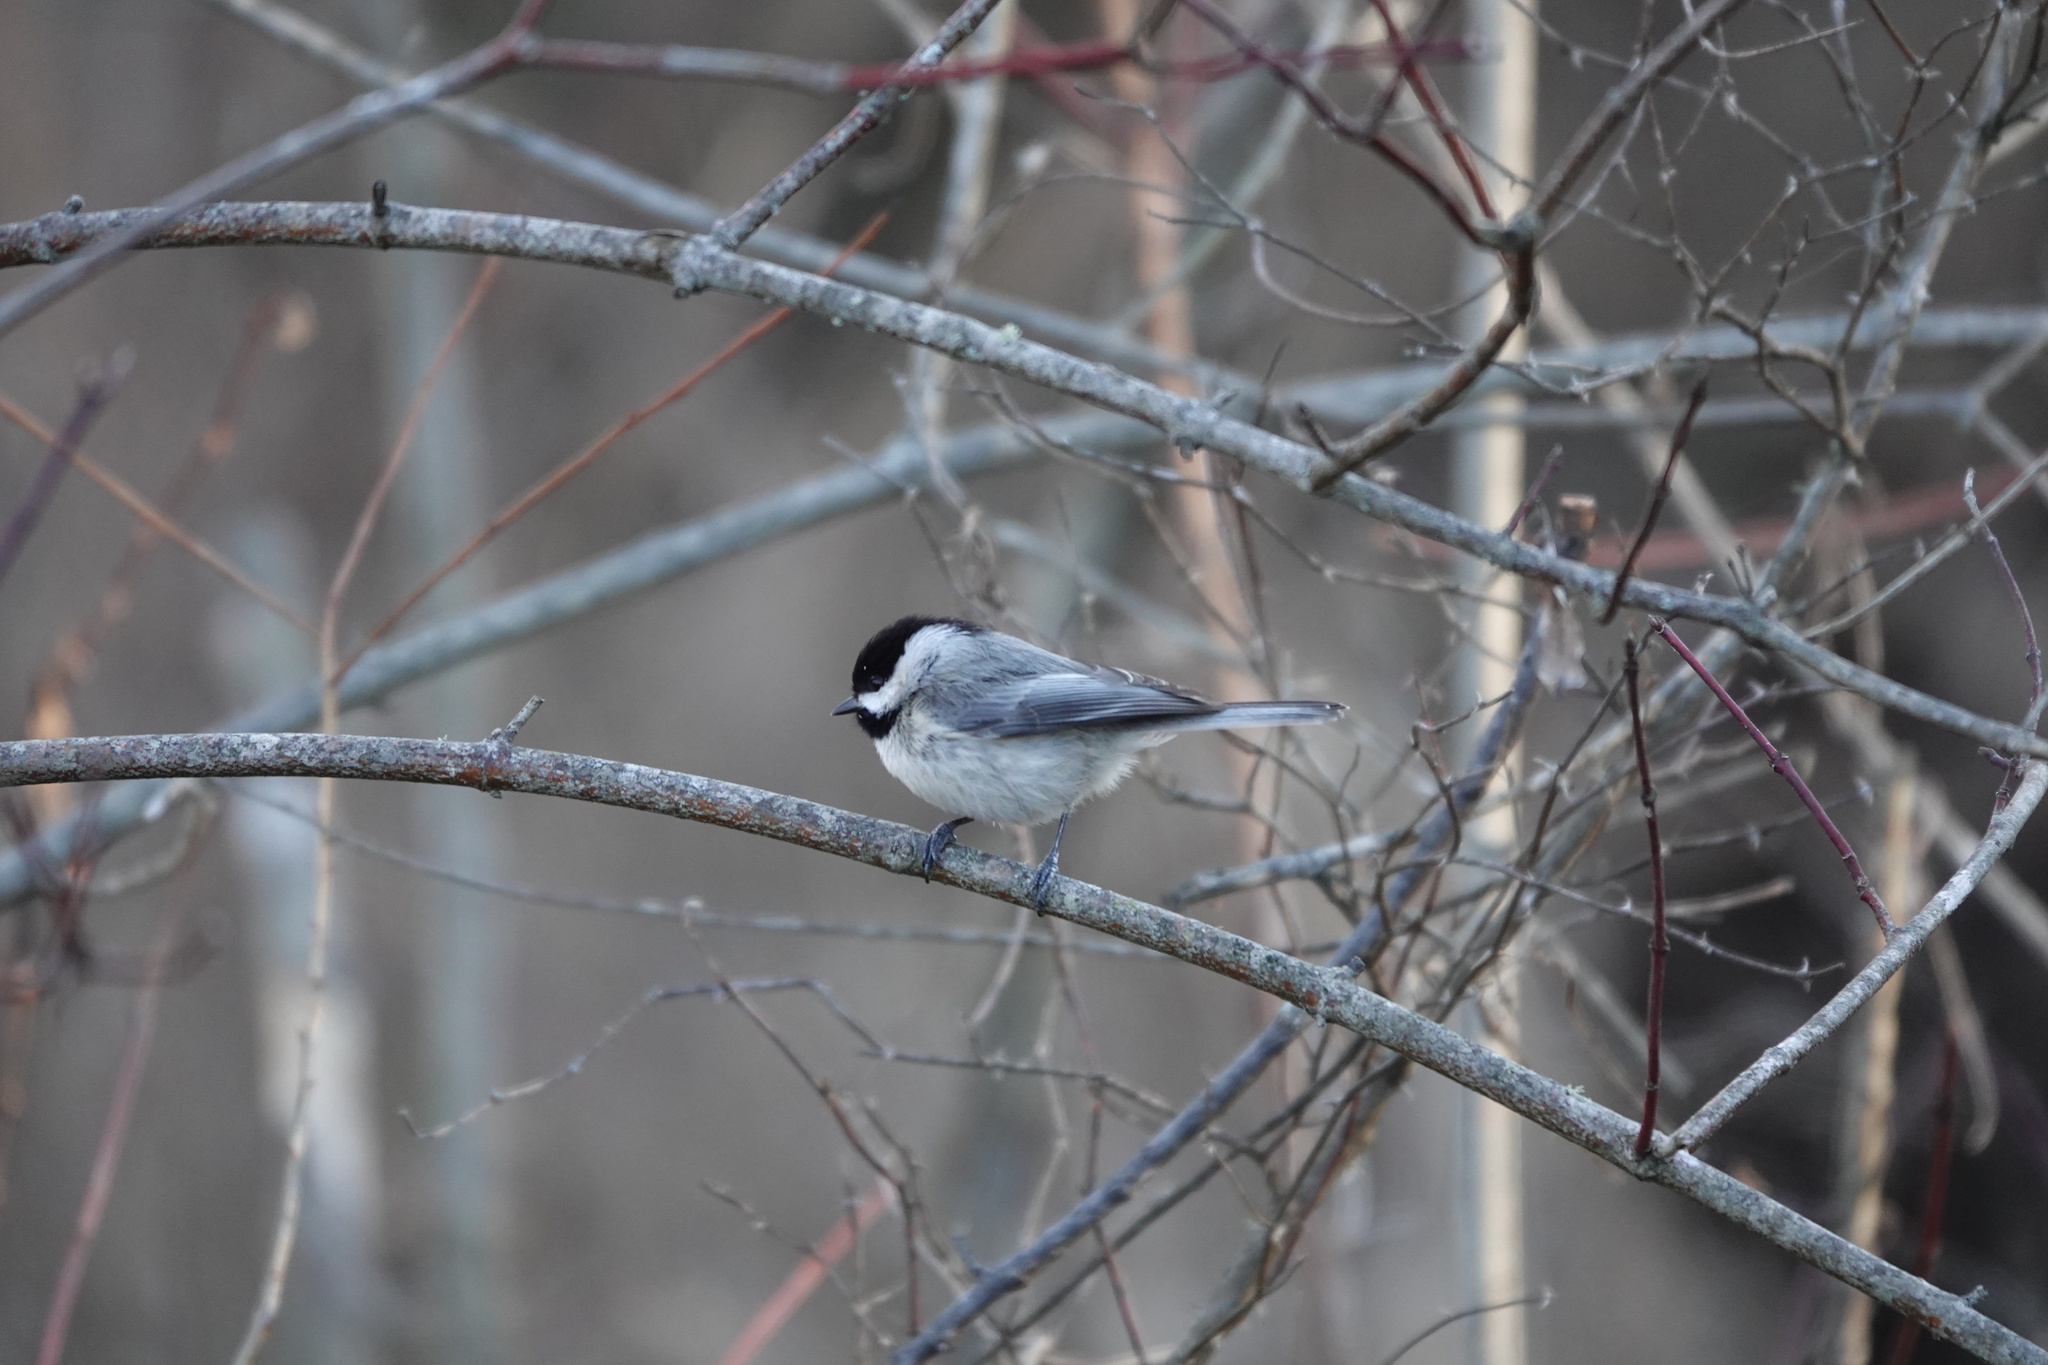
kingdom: Animalia
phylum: Chordata
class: Aves
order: Passeriformes
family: Paridae
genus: Poecile
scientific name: Poecile carolinensis
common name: Carolina chickadee
